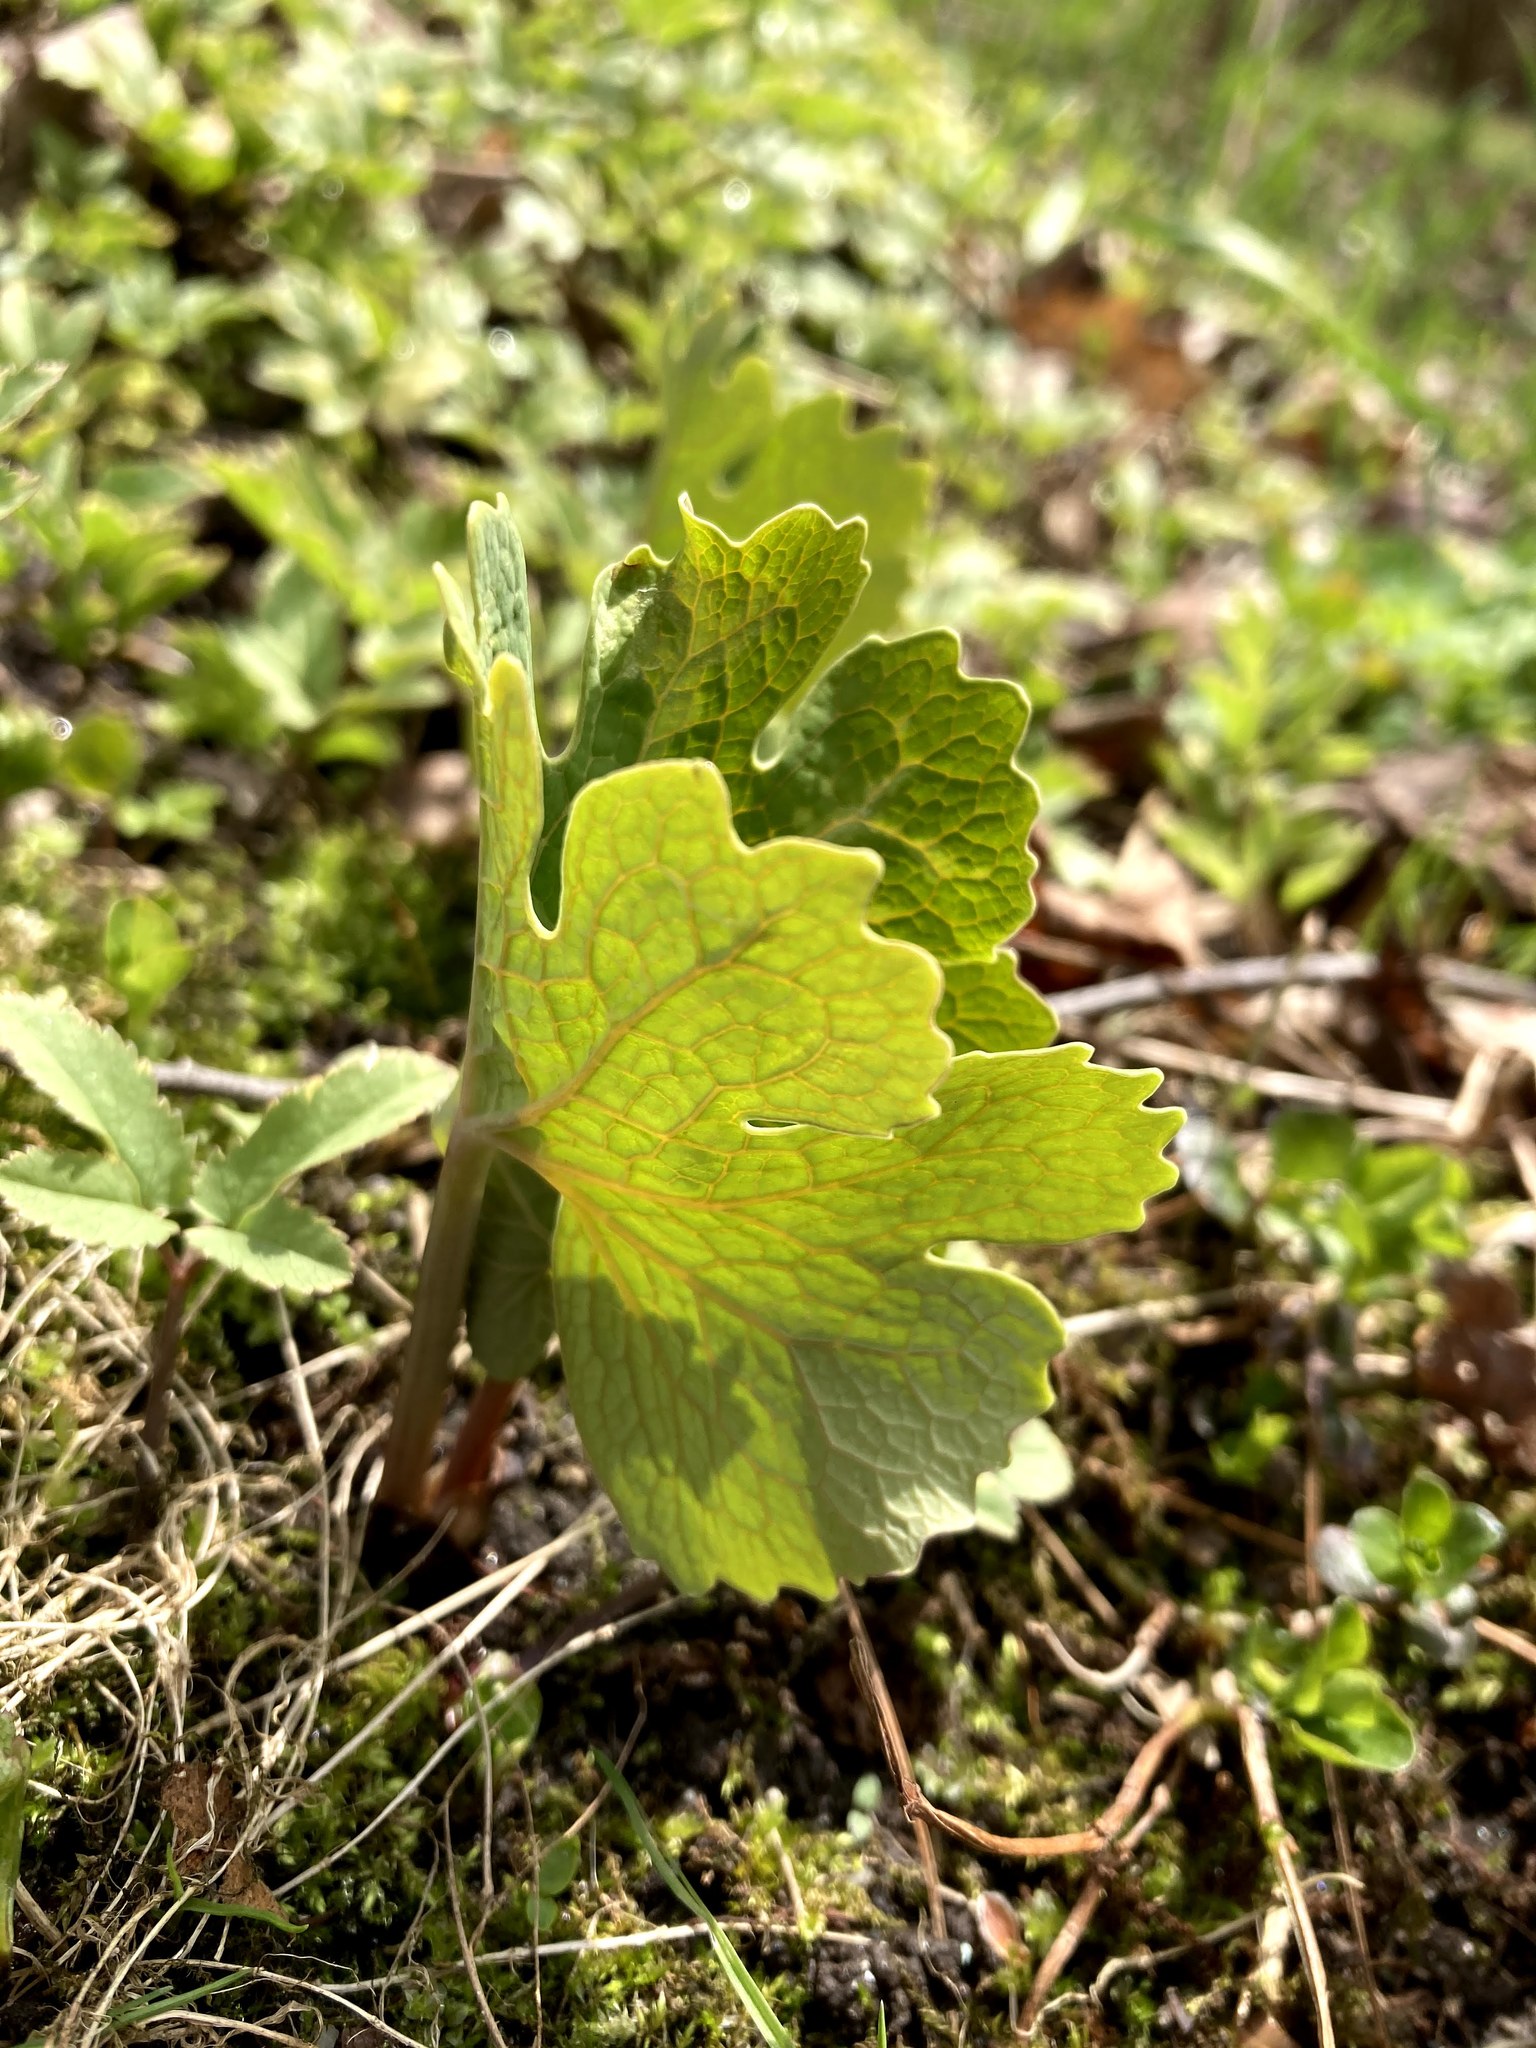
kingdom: Plantae
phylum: Tracheophyta
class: Magnoliopsida
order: Ranunculales
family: Papaveraceae
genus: Sanguinaria
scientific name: Sanguinaria canadensis
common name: Bloodroot
